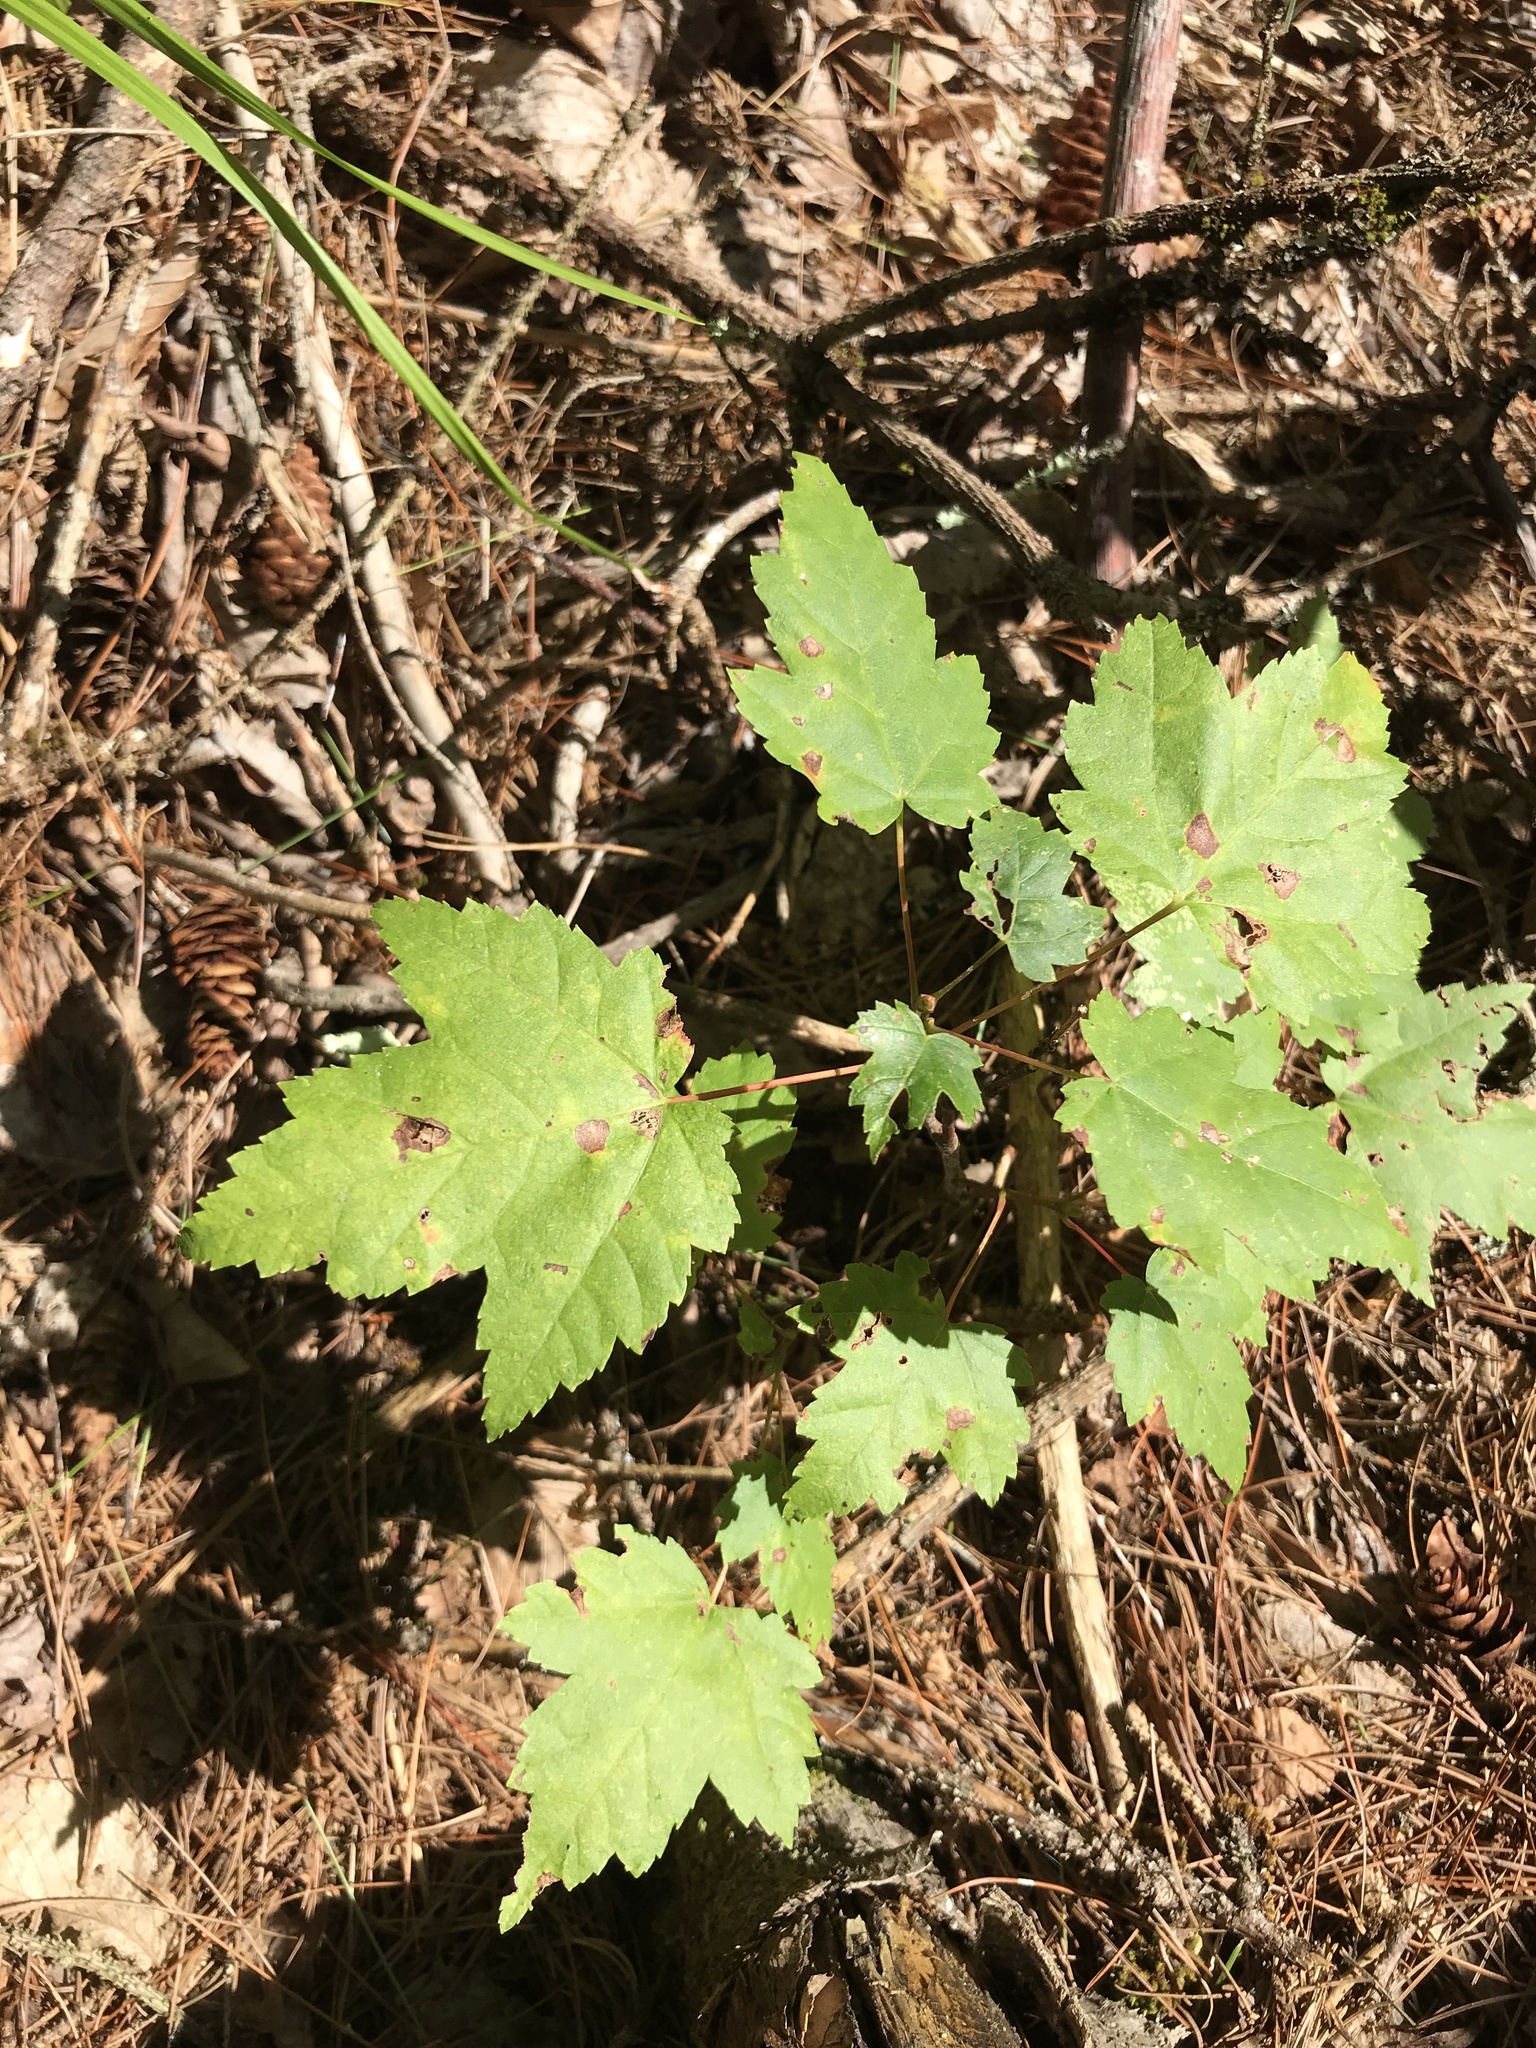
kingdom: Plantae
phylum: Tracheophyta
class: Magnoliopsida
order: Sapindales
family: Sapindaceae
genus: Acer
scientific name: Acer rubrum
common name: Red maple
